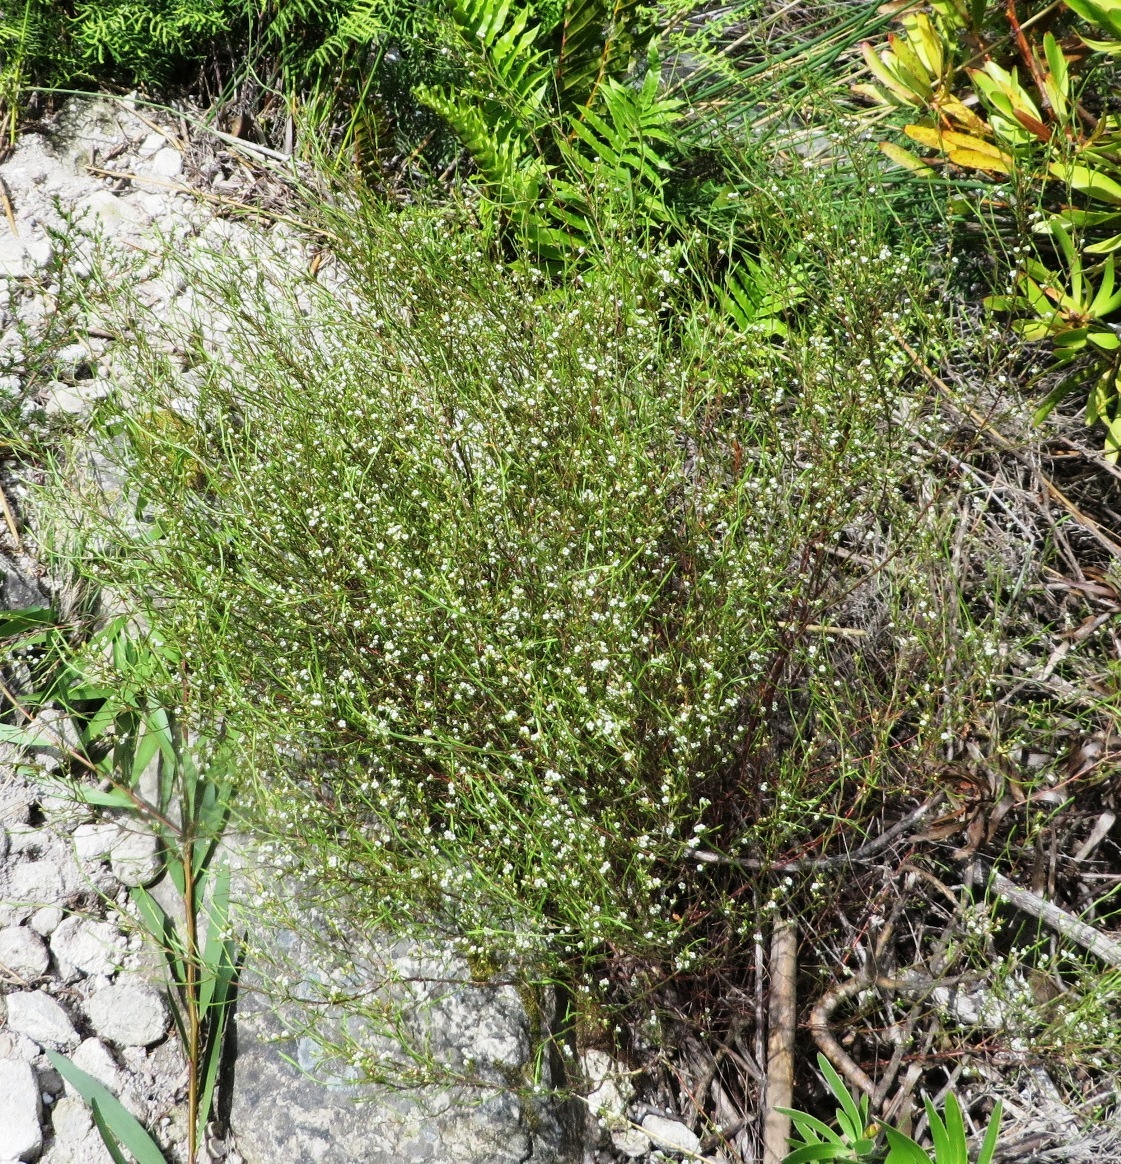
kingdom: Plantae
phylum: Tracheophyta
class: Magnoliopsida
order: Sapindales
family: Rutaceae
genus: Coleonema
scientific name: Coleonema juniperinum
